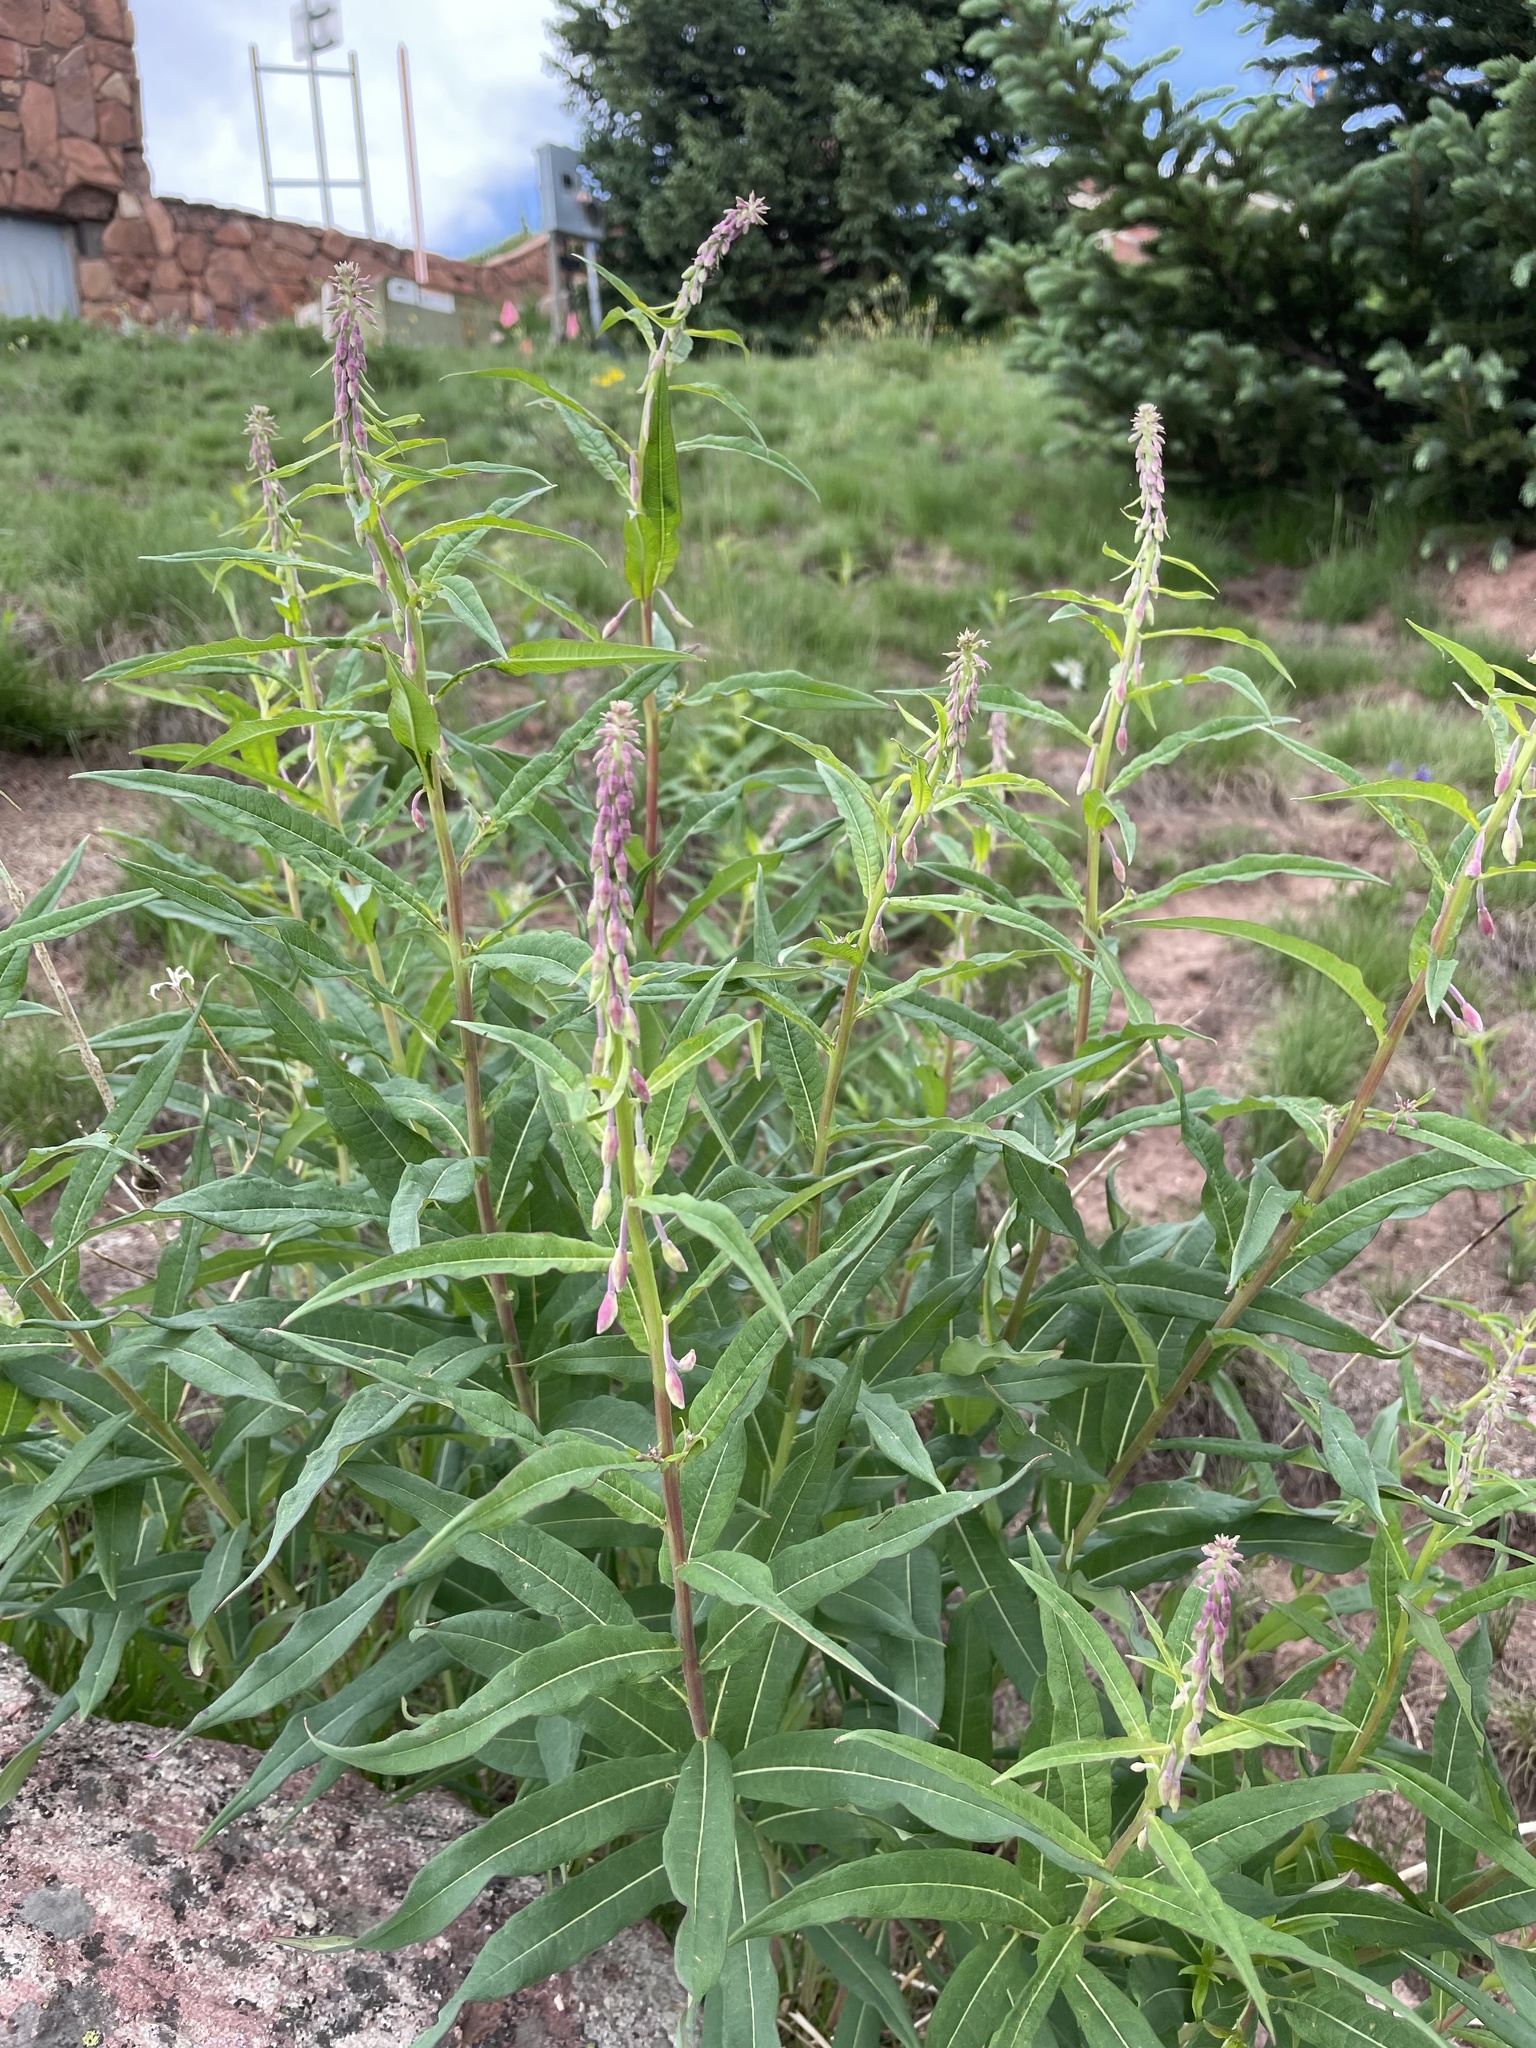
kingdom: Plantae
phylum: Tracheophyta
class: Magnoliopsida
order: Myrtales
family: Onagraceae
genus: Chamaenerion
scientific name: Chamaenerion angustifolium
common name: Fireweed
